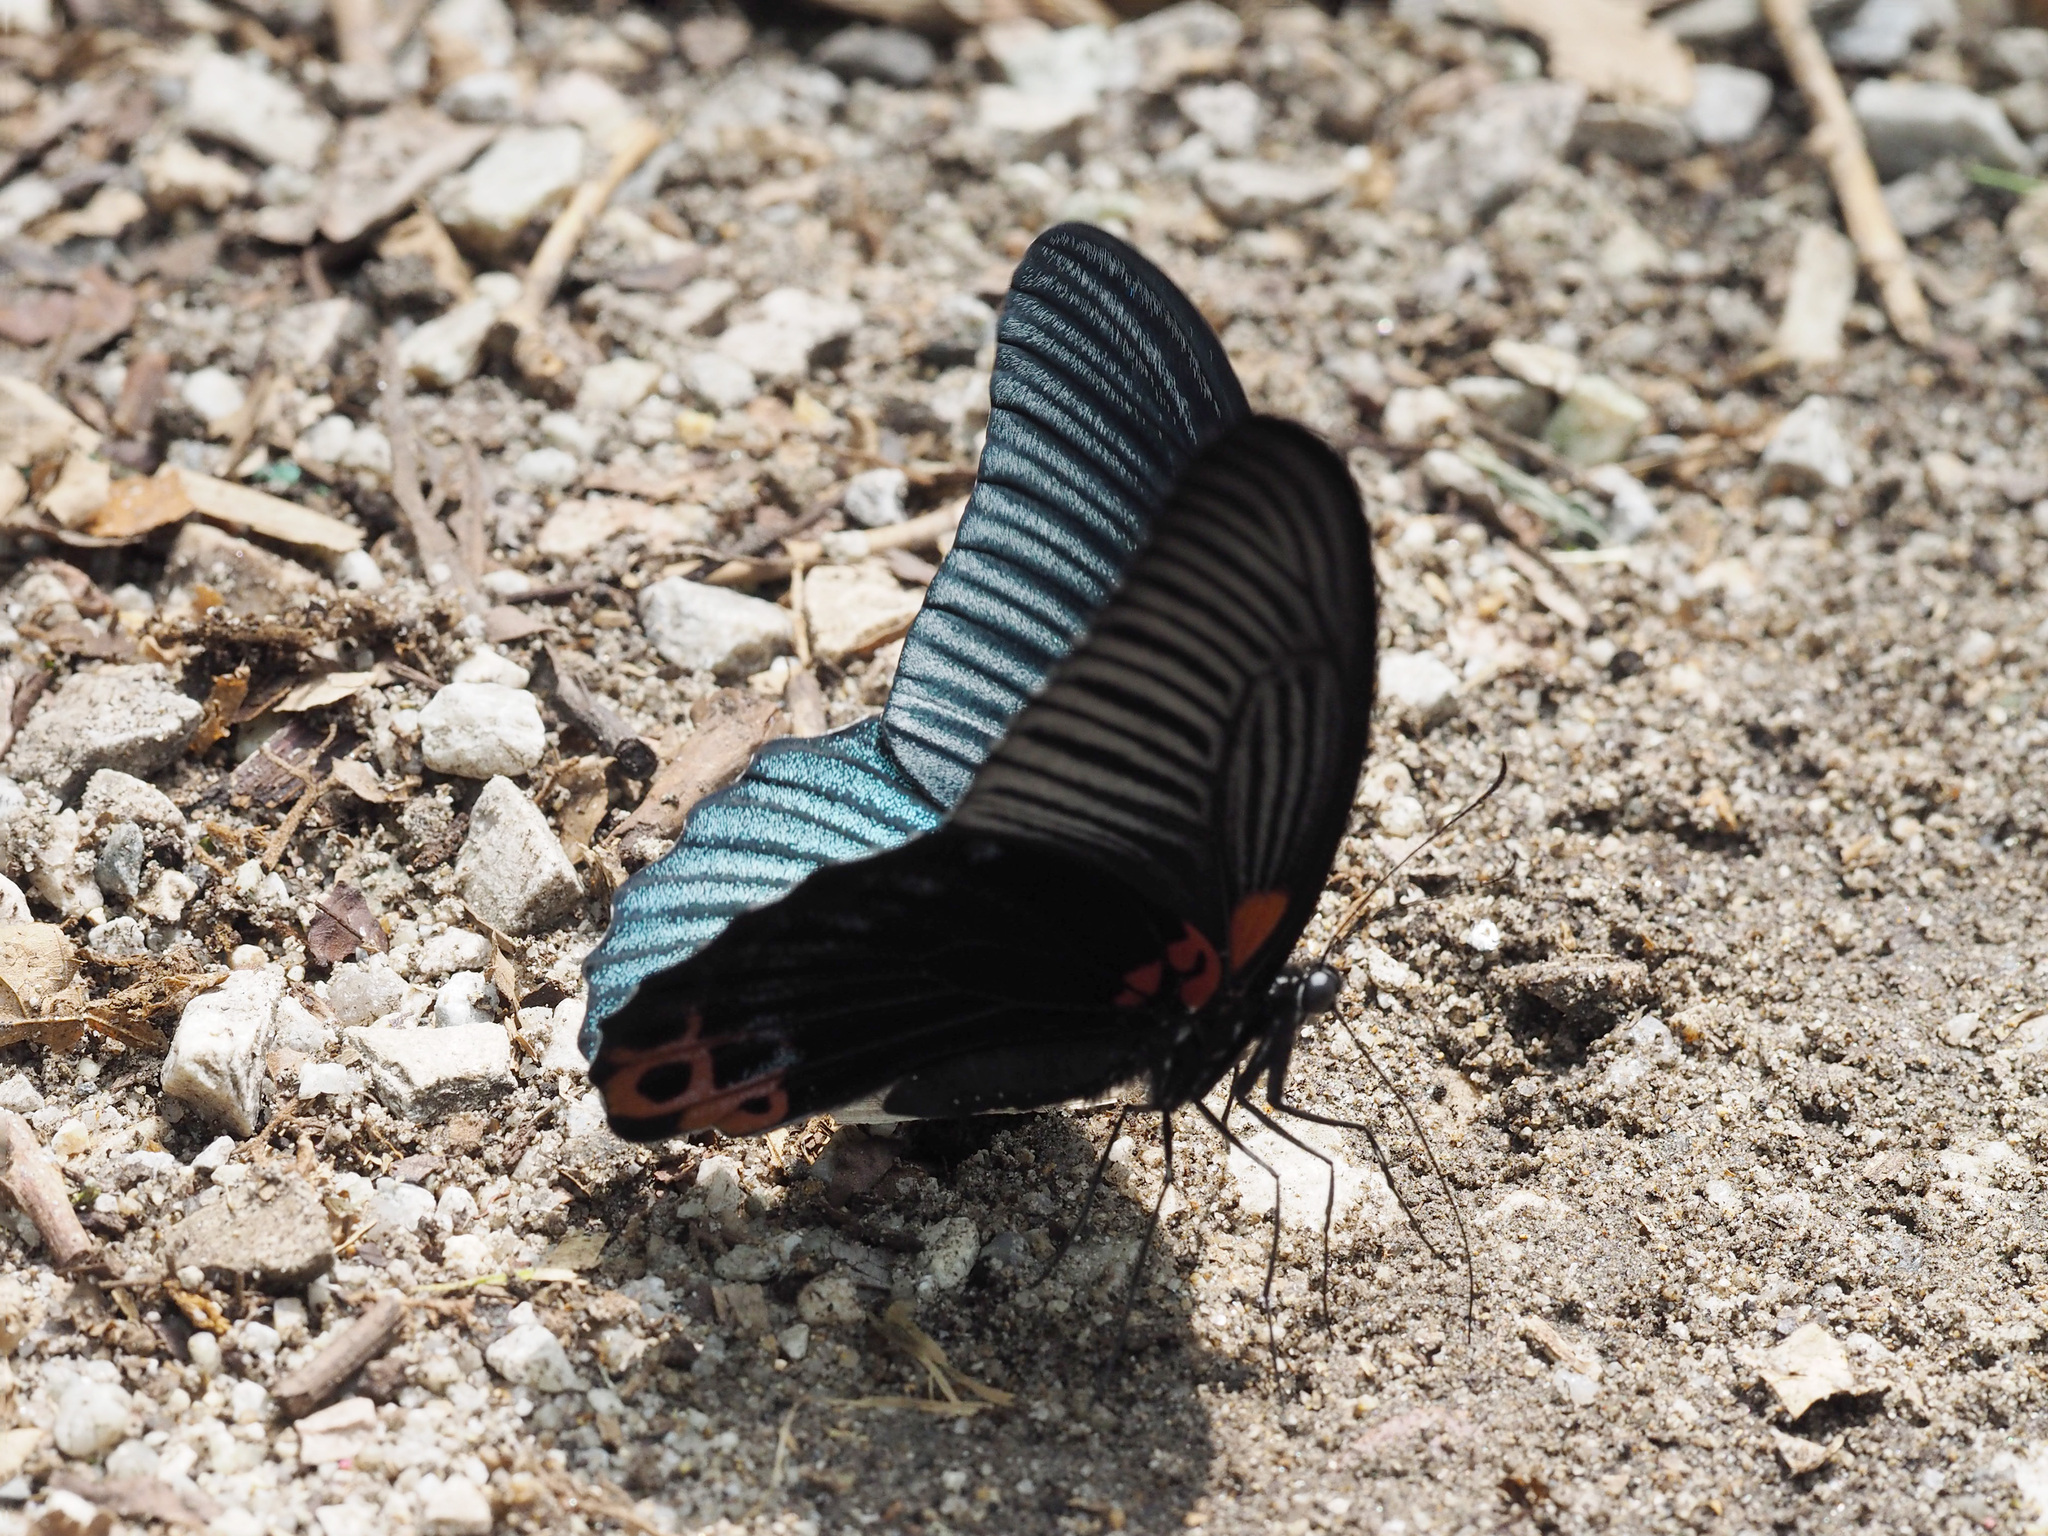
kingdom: Animalia
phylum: Arthropoda
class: Insecta
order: Lepidoptera
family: Papilionidae
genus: Papilio
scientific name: Papilio memnon
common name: Great mormon
